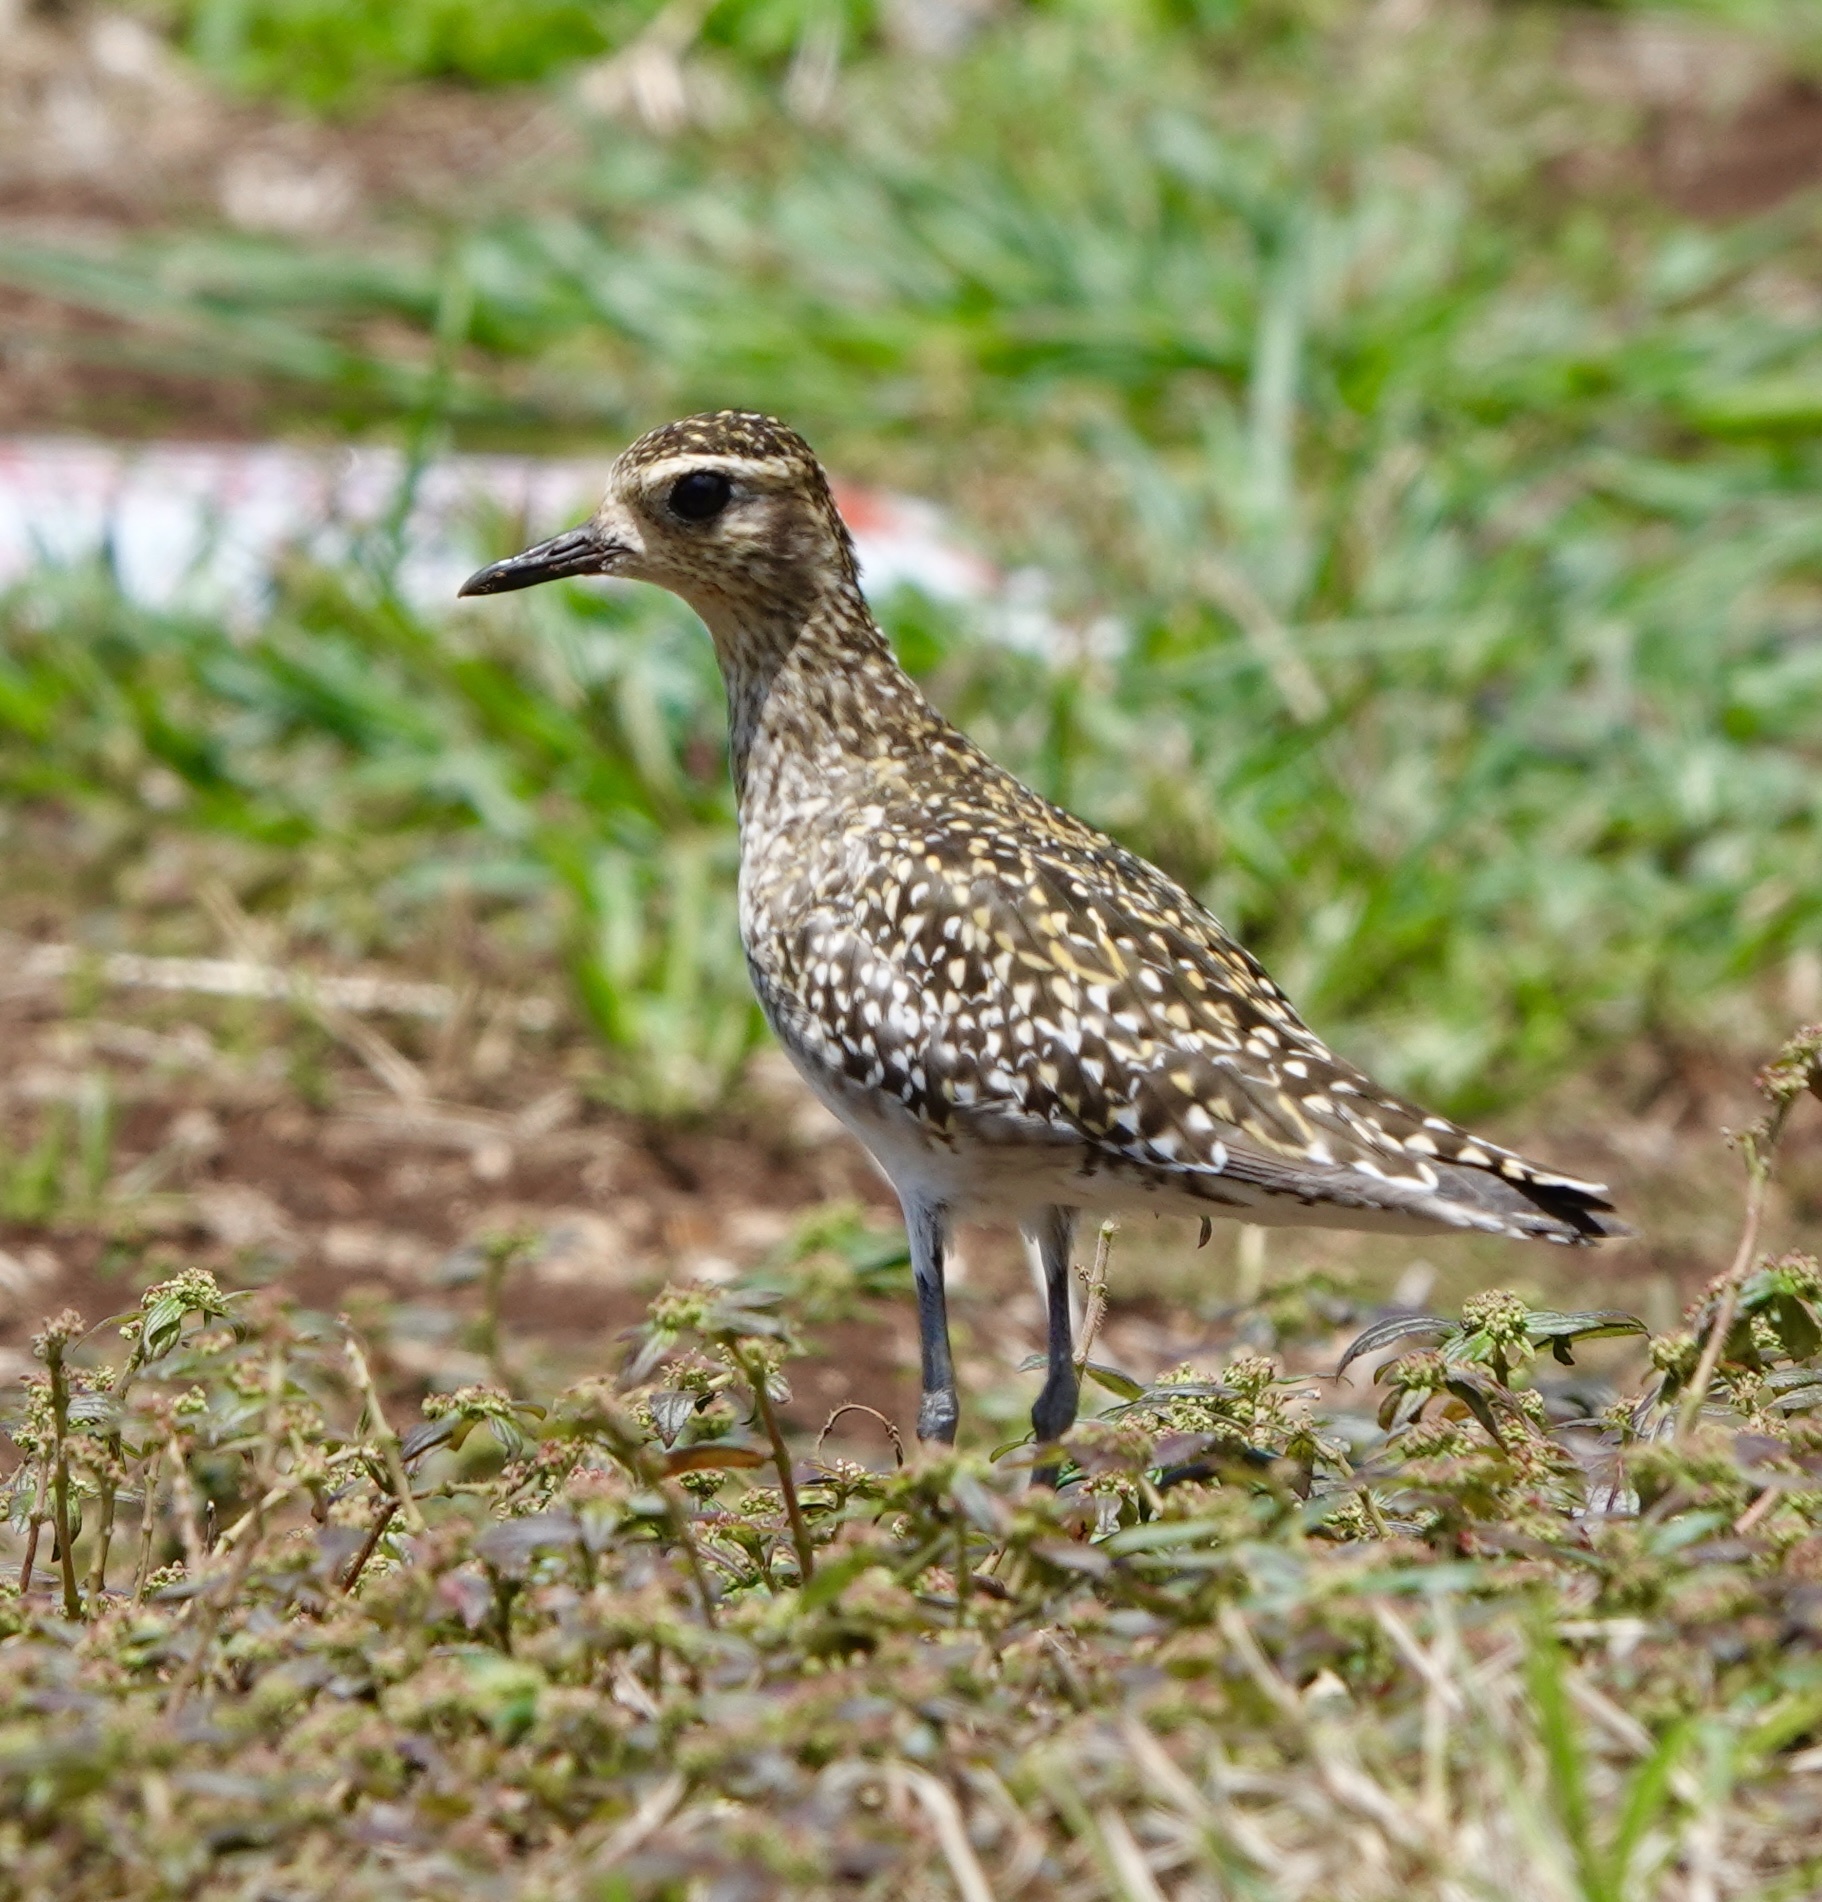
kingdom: Animalia
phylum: Chordata
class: Aves
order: Charadriiformes
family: Charadriidae
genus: Pluvialis
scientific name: Pluvialis fulva
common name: Pacific golden plover
